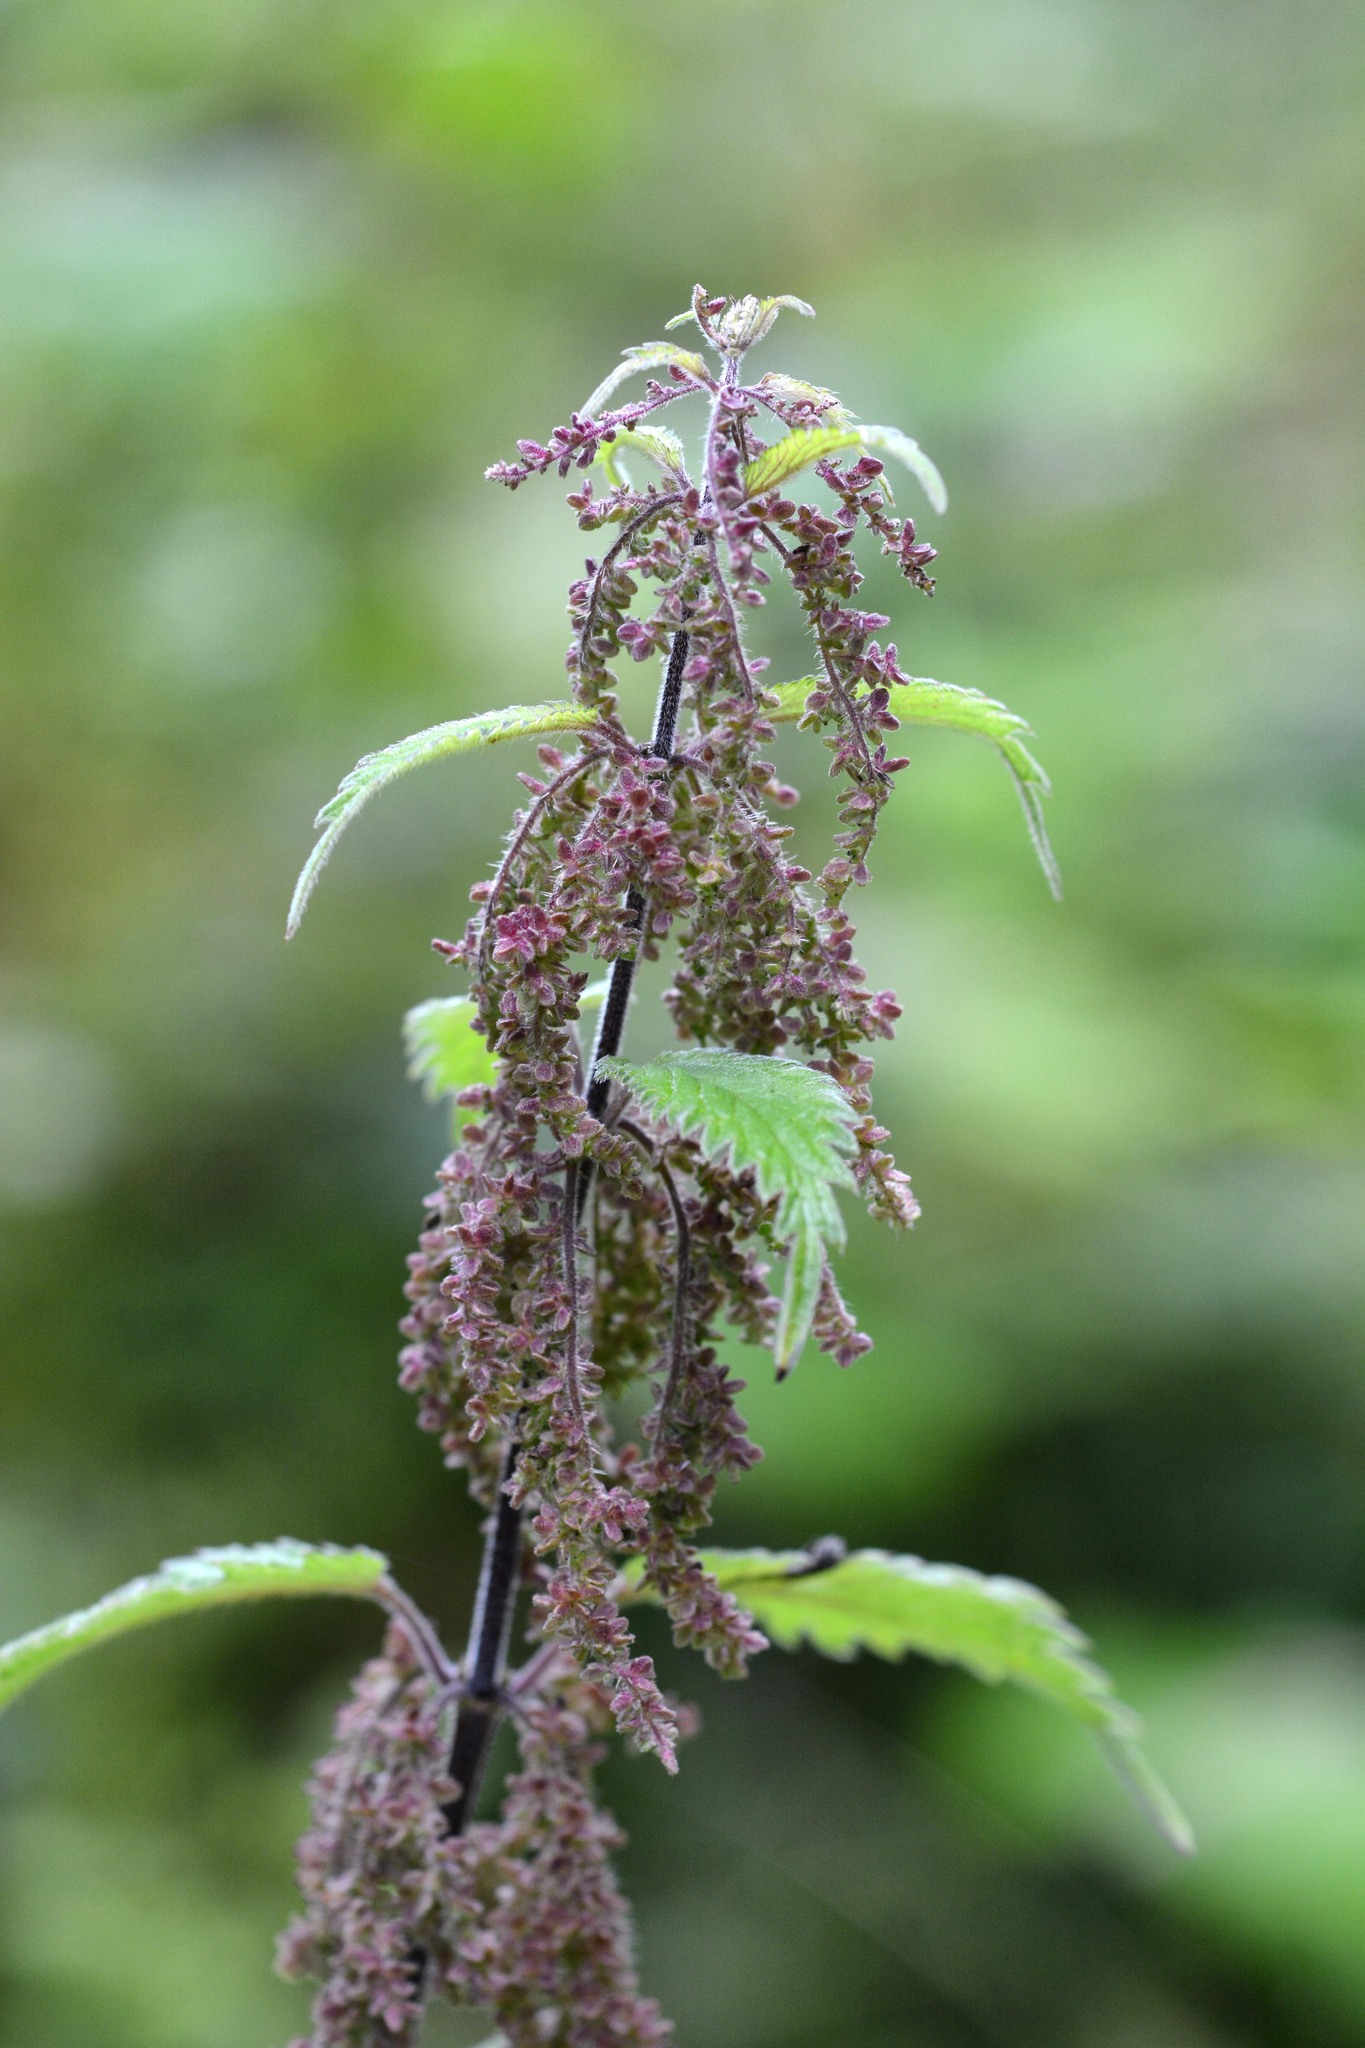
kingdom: Plantae
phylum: Tracheophyta
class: Magnoliopsida
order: Rosales
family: Urticaceae
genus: Urtica
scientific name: Urtica dioica
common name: Common nettle
